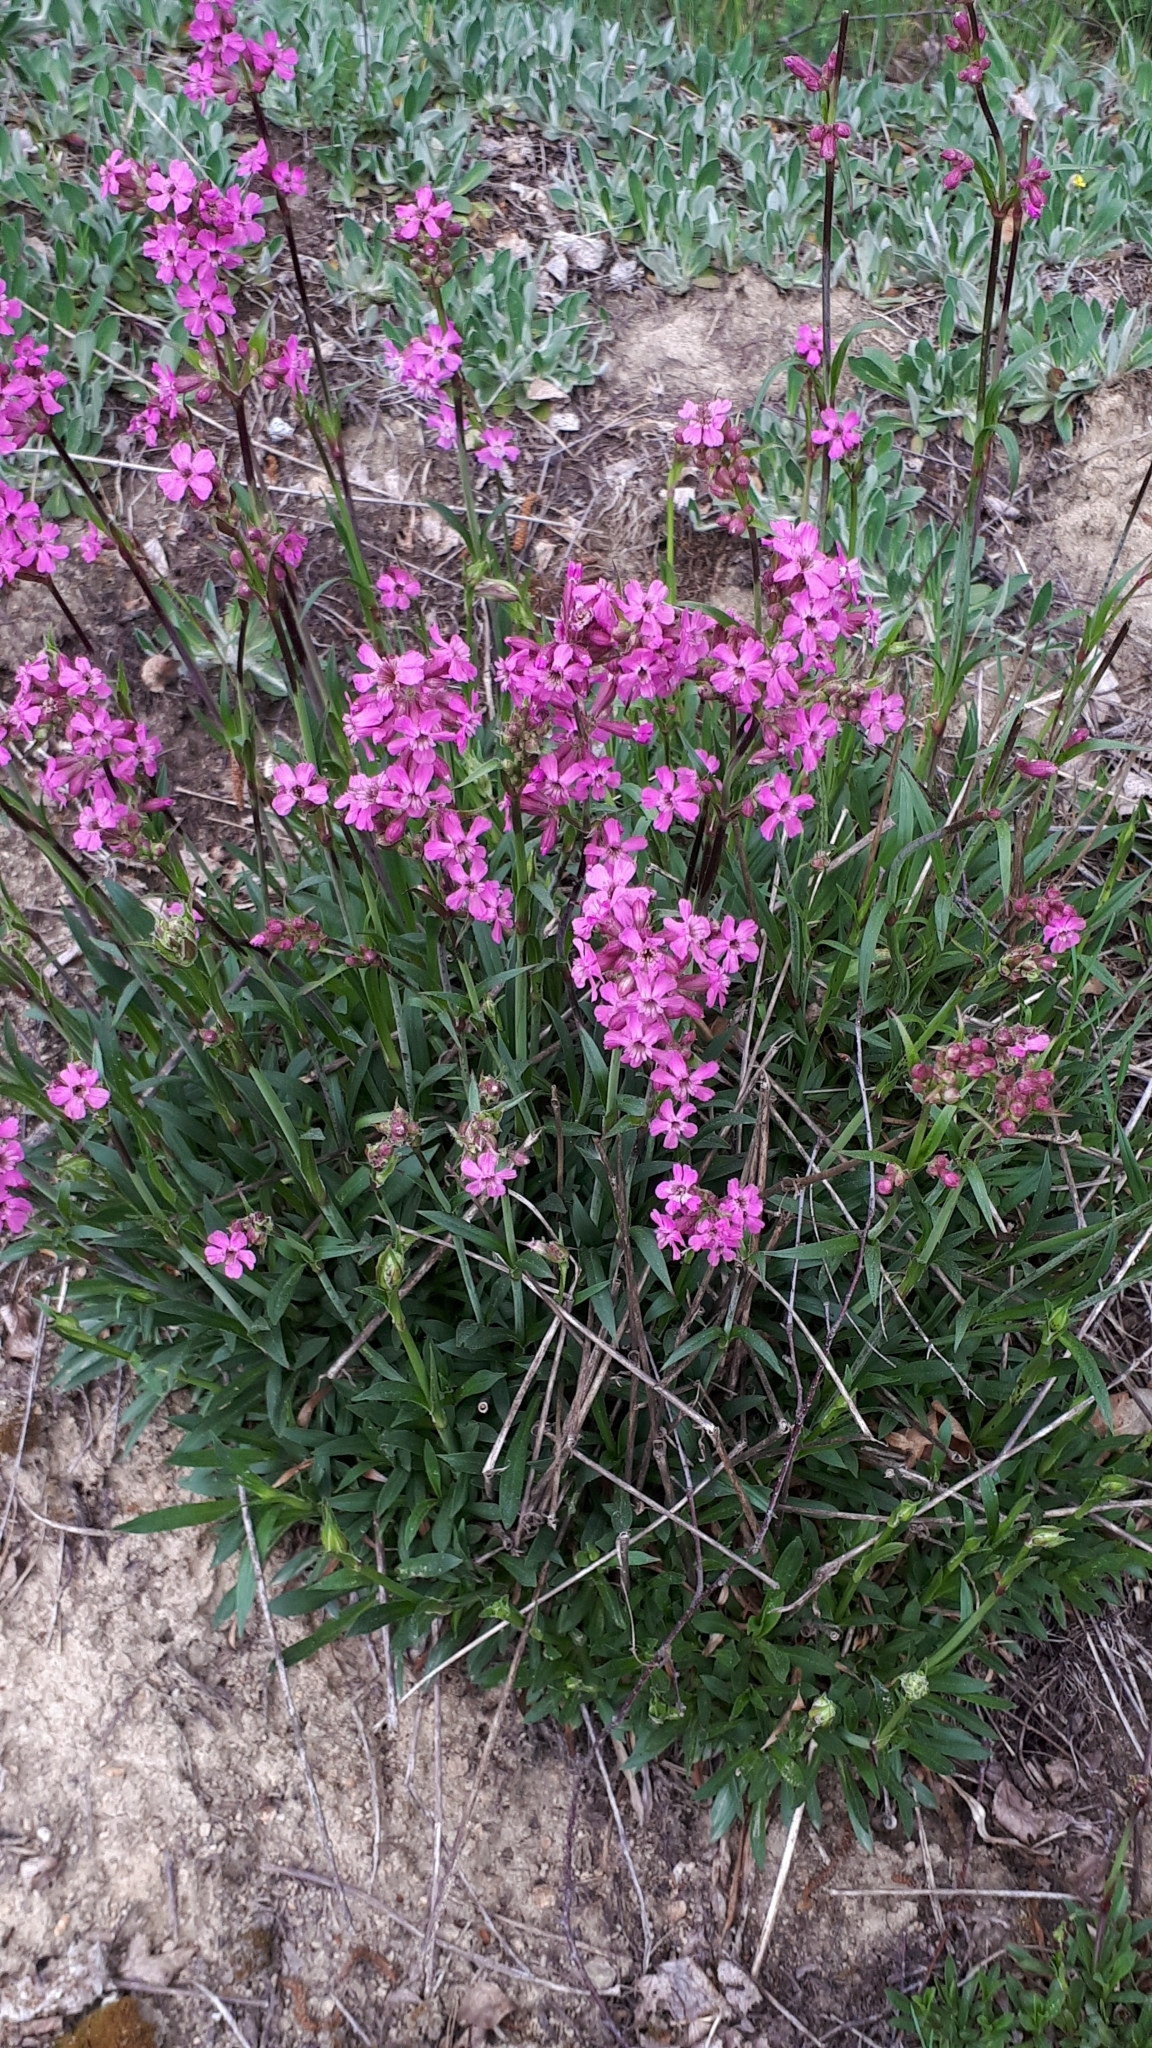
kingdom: Plantae
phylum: Tracheophyta
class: Magnoliopsida
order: Caryophyllales
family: Caryophyllaceae
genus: Viscaria
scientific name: Viscaria vulgaris
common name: Clammy campion
